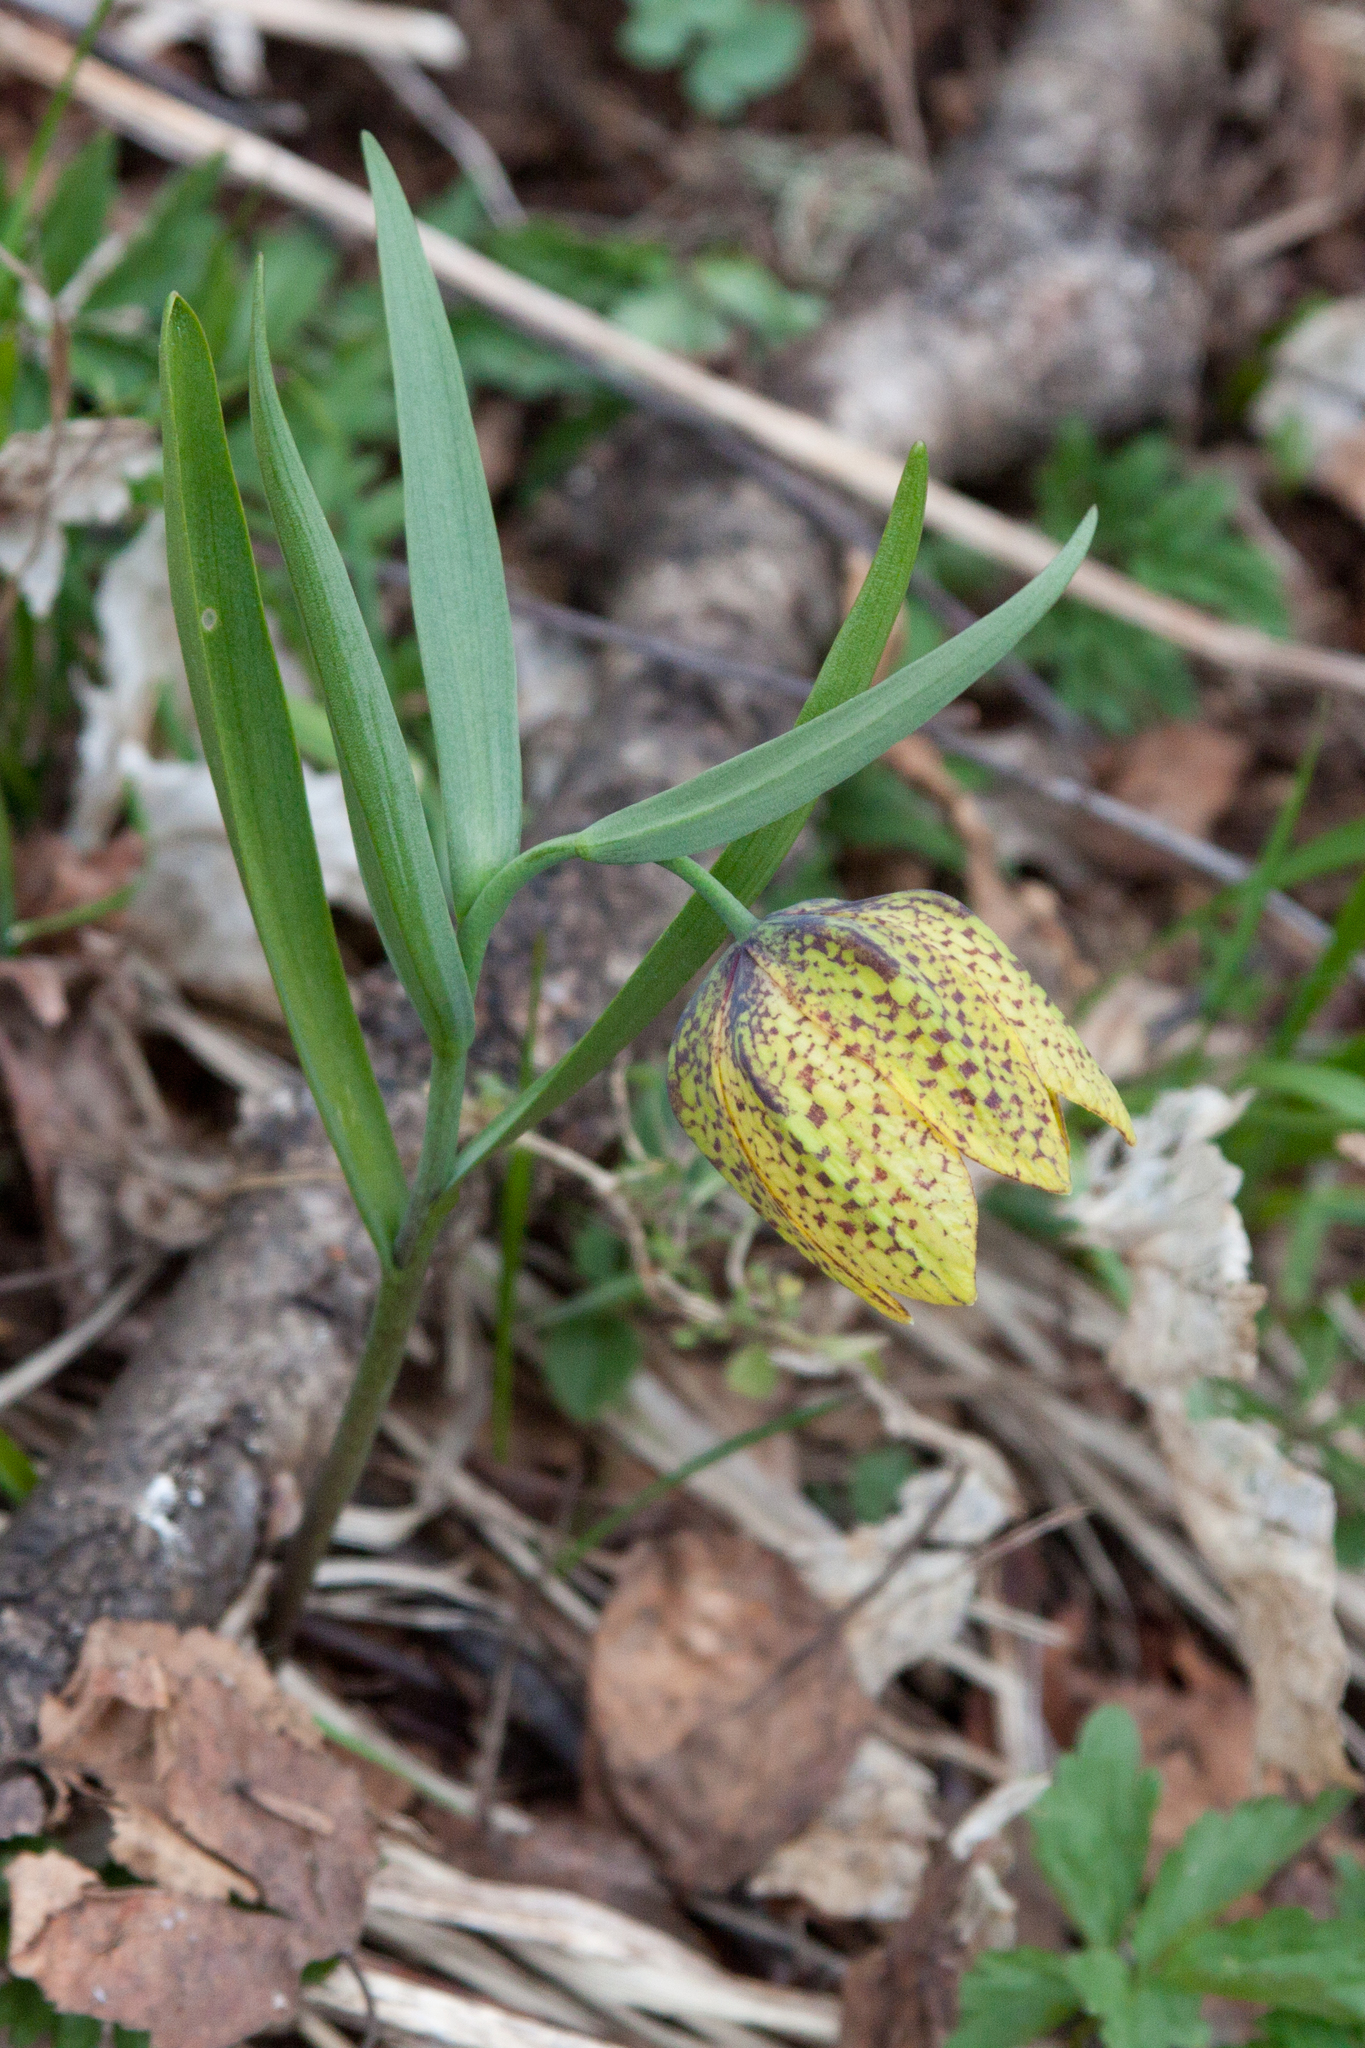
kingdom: Plantae
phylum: Tracheophyta
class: Liliopsida
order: Liliales
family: Liliaceae
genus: Fritillaria
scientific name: Fritillaria collina
